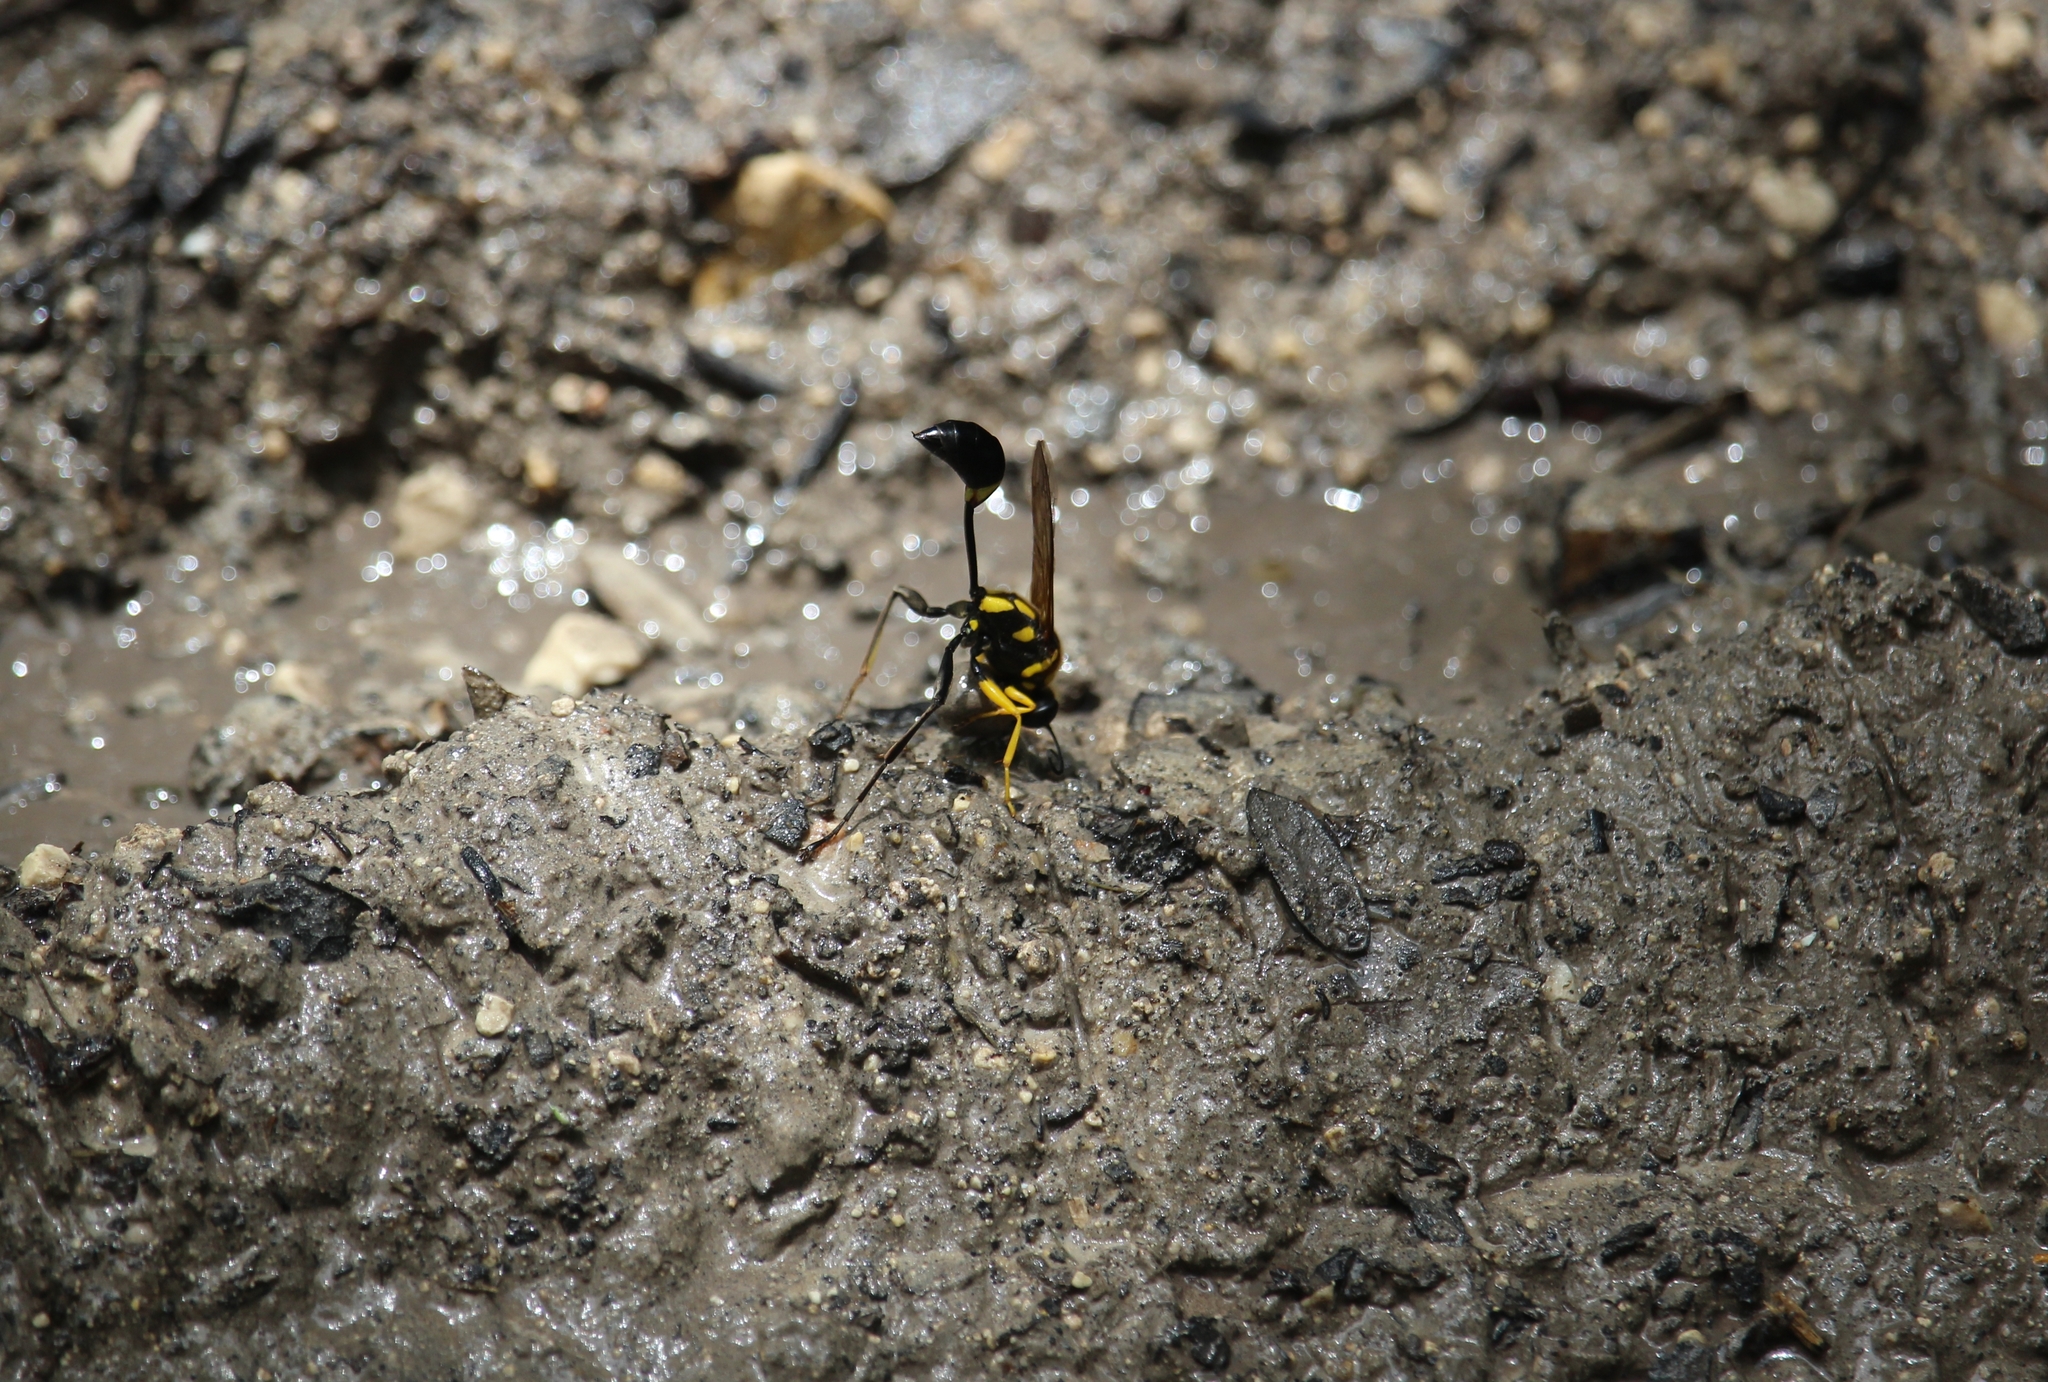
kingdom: Animalia
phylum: Arthropoda
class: Insecta
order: Hymenoptera
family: Sphecidae
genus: Sceliphron
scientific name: Sceliphron fistularium
